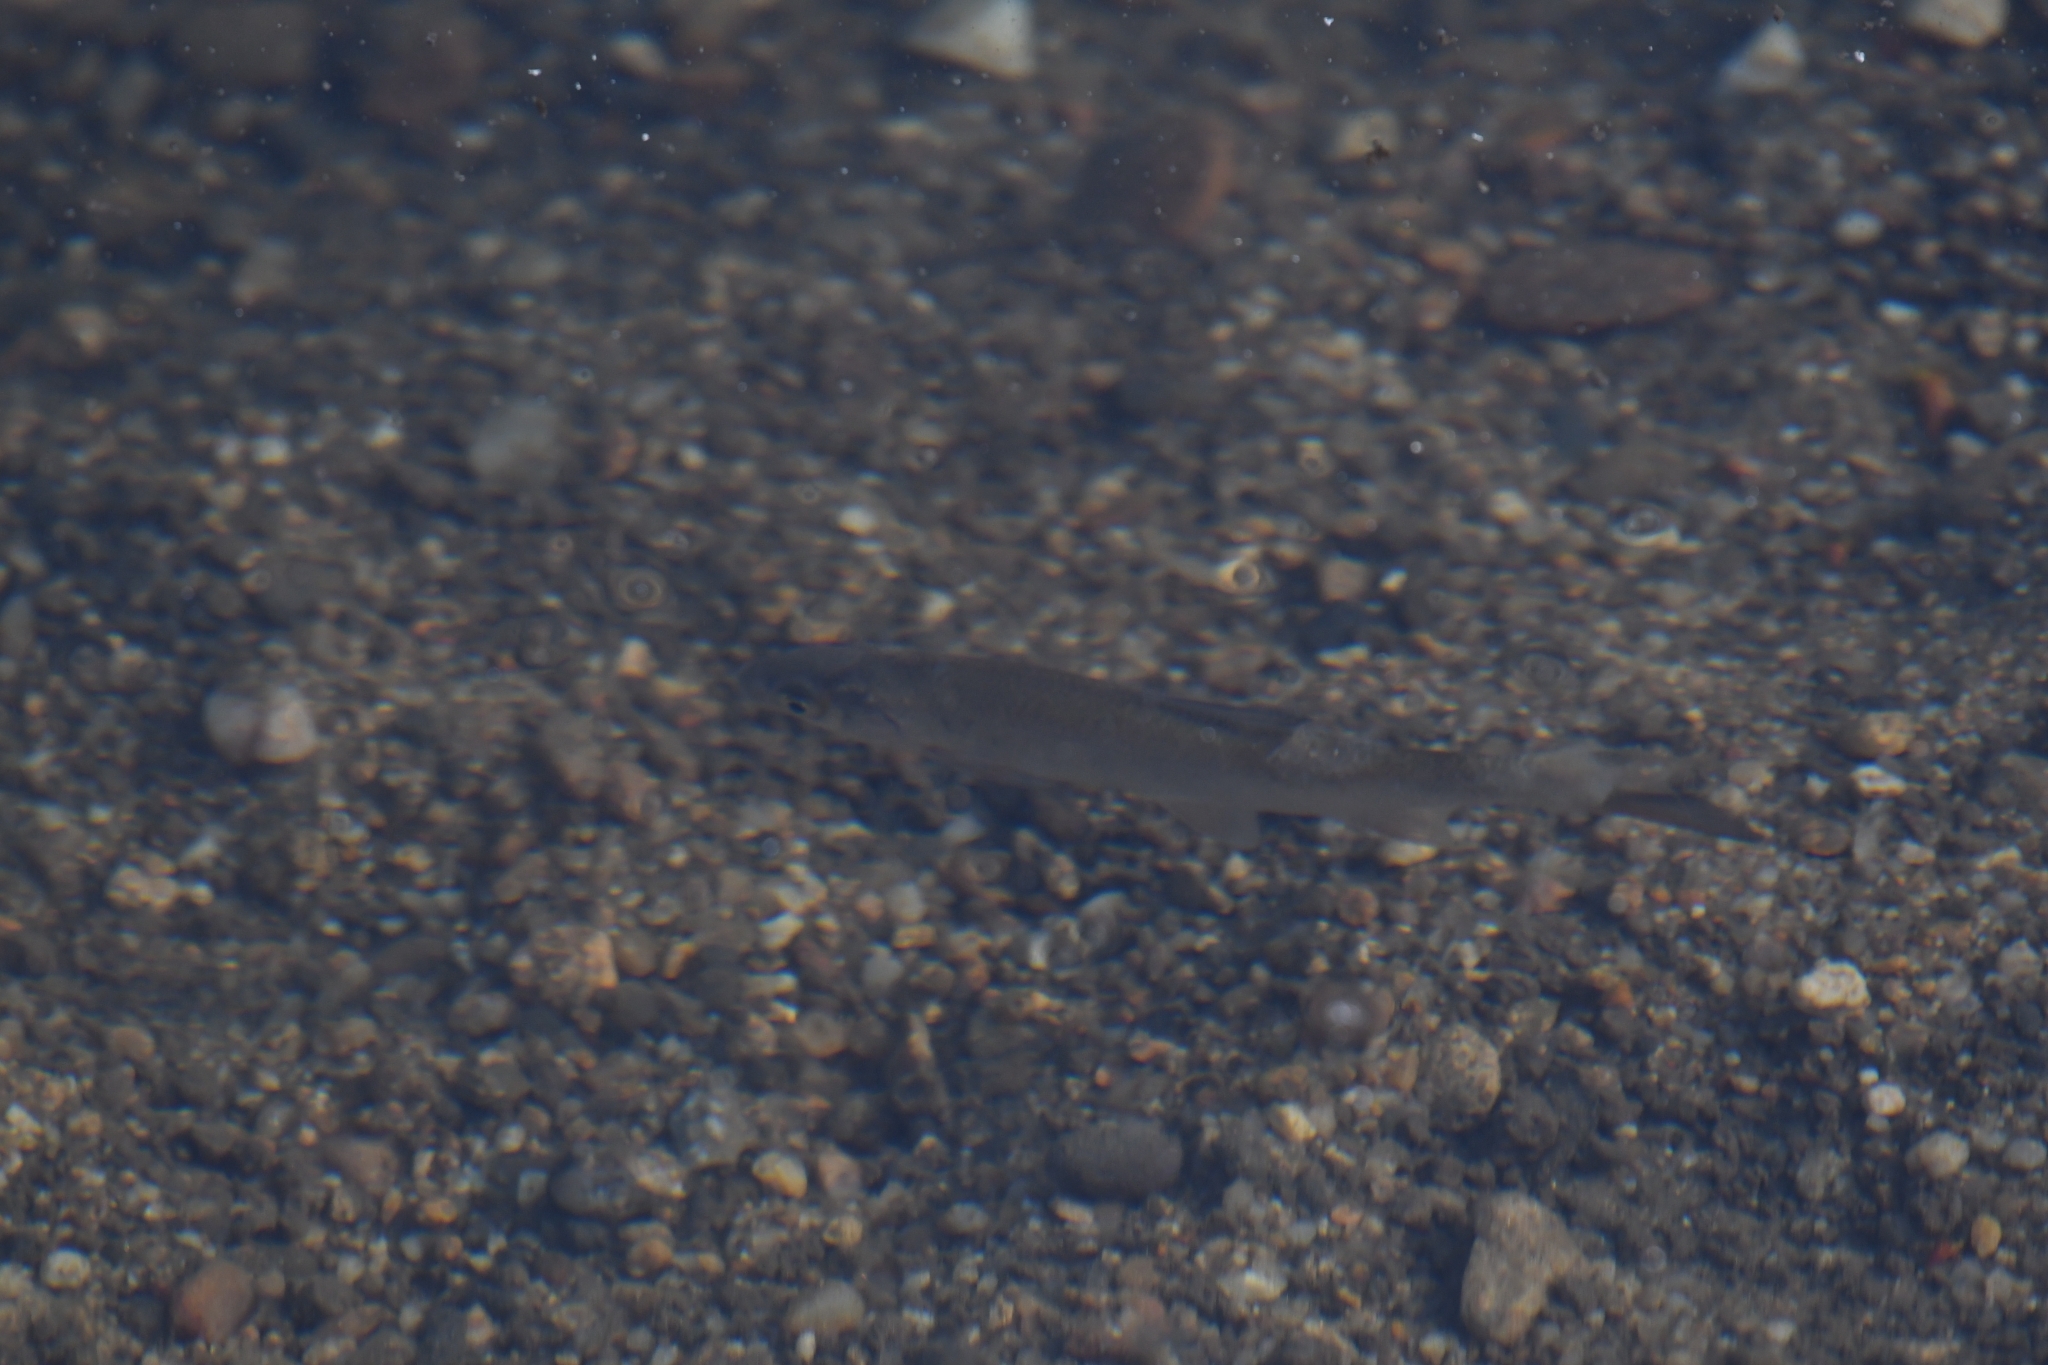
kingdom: Animalia
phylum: Chordata
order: Cypriniformes
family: Cyprinidae
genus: Leuciscus
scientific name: Leuciscus leuciscus
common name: Dace
